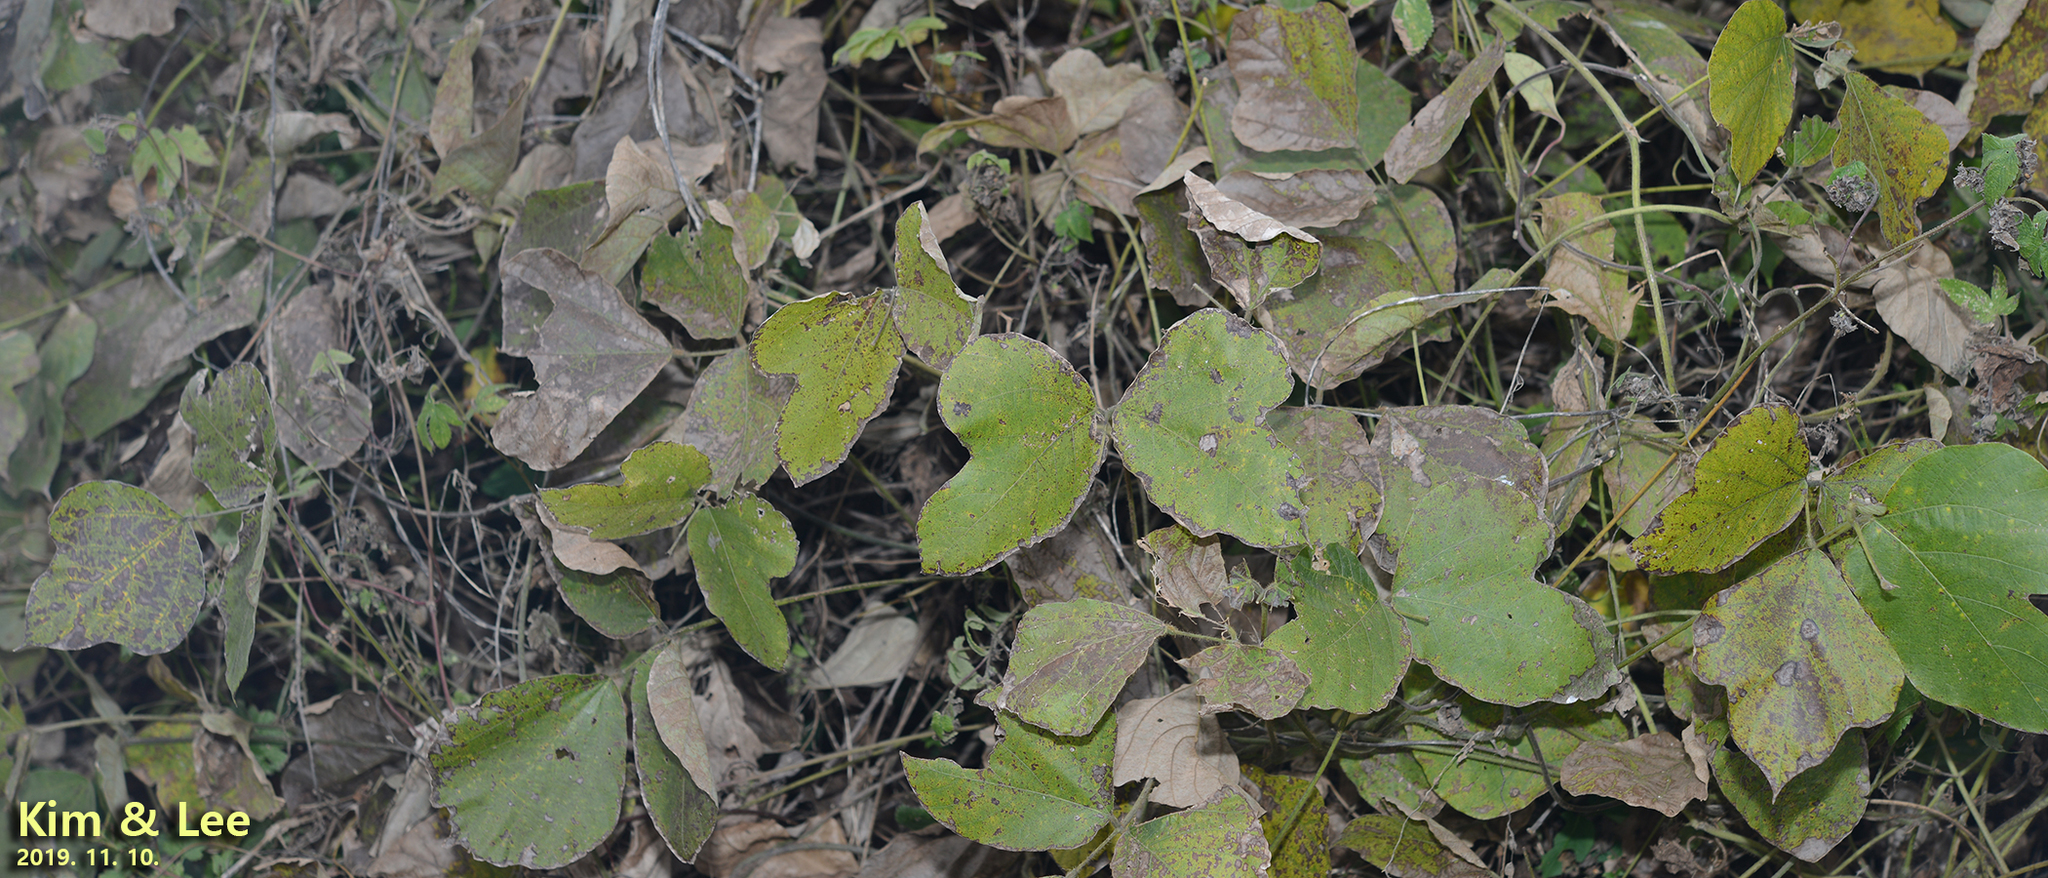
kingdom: Plantae
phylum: Tracheophyta
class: Magnoliopsida
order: Fabales
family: Fabaceae
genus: Pueraria
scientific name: Pueraria montana
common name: Kudzu
